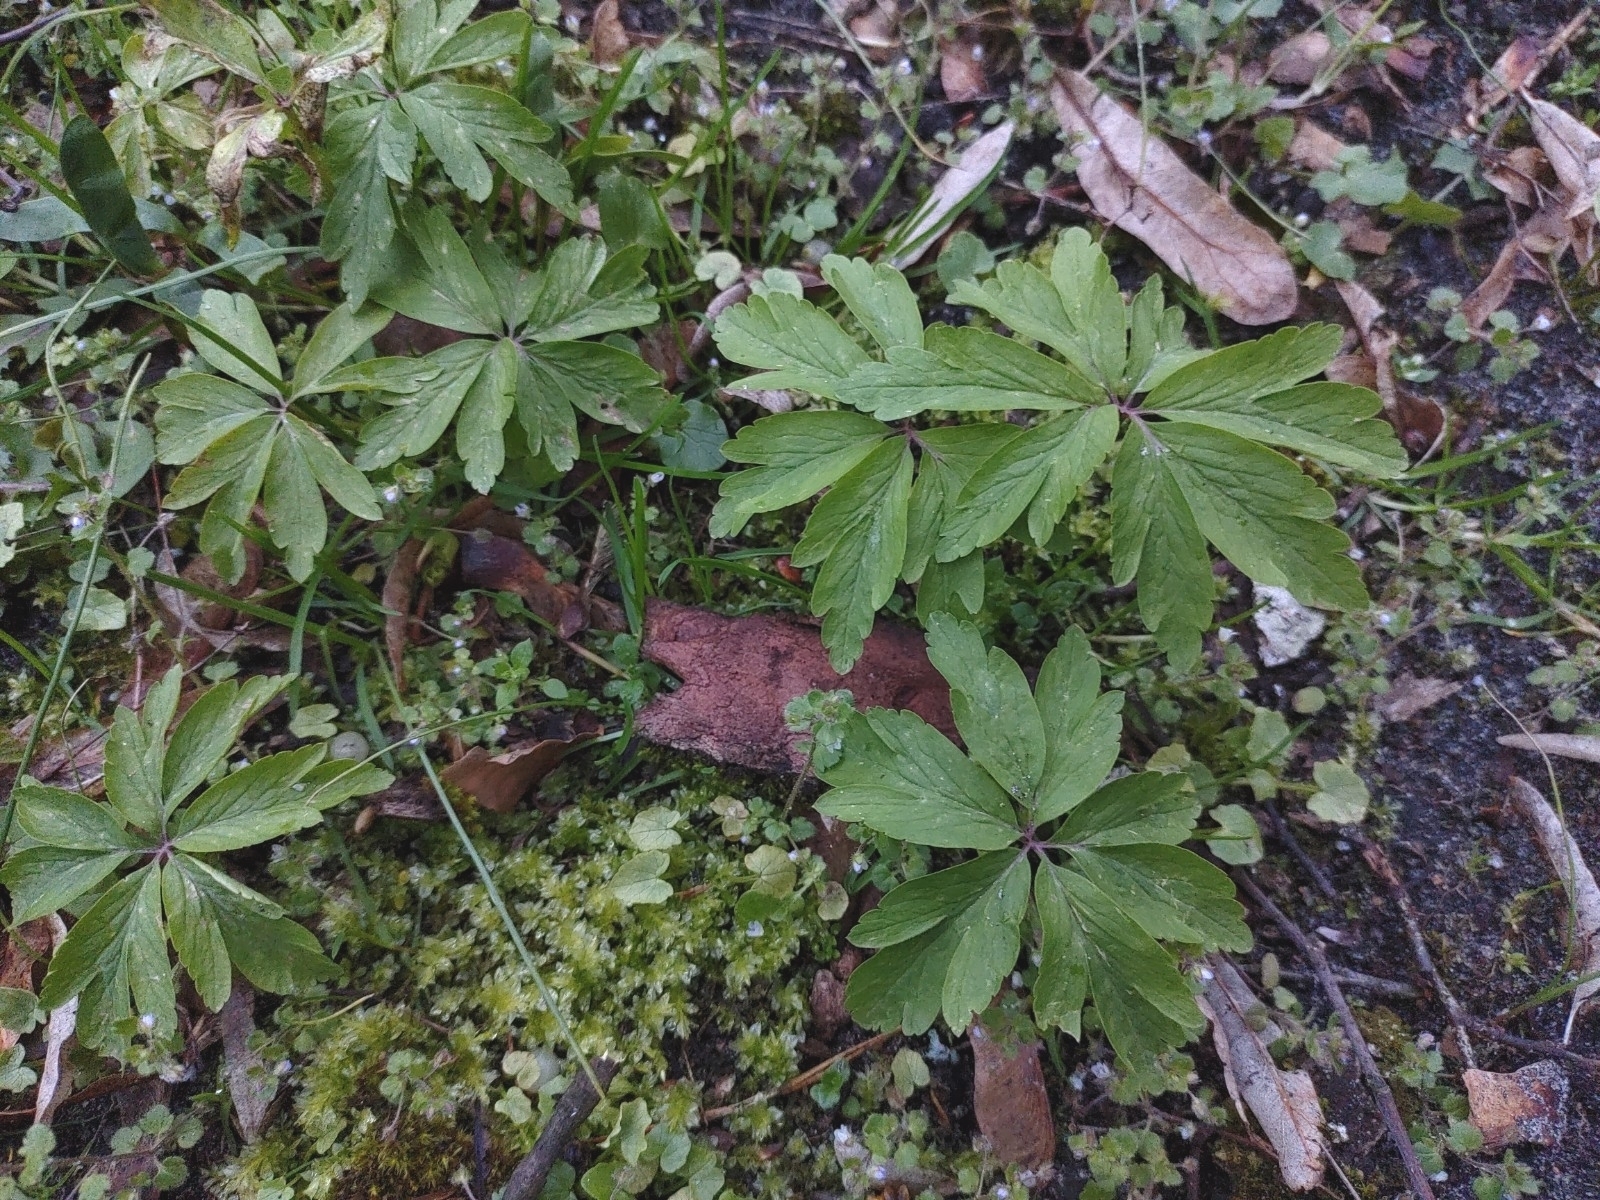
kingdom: Plantae
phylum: Tracheophyta
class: Magnoliopsida
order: Ranunculales
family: Ranunculaceae
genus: Anemone
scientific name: Anemone ranunculoides
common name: Yellow anemone
